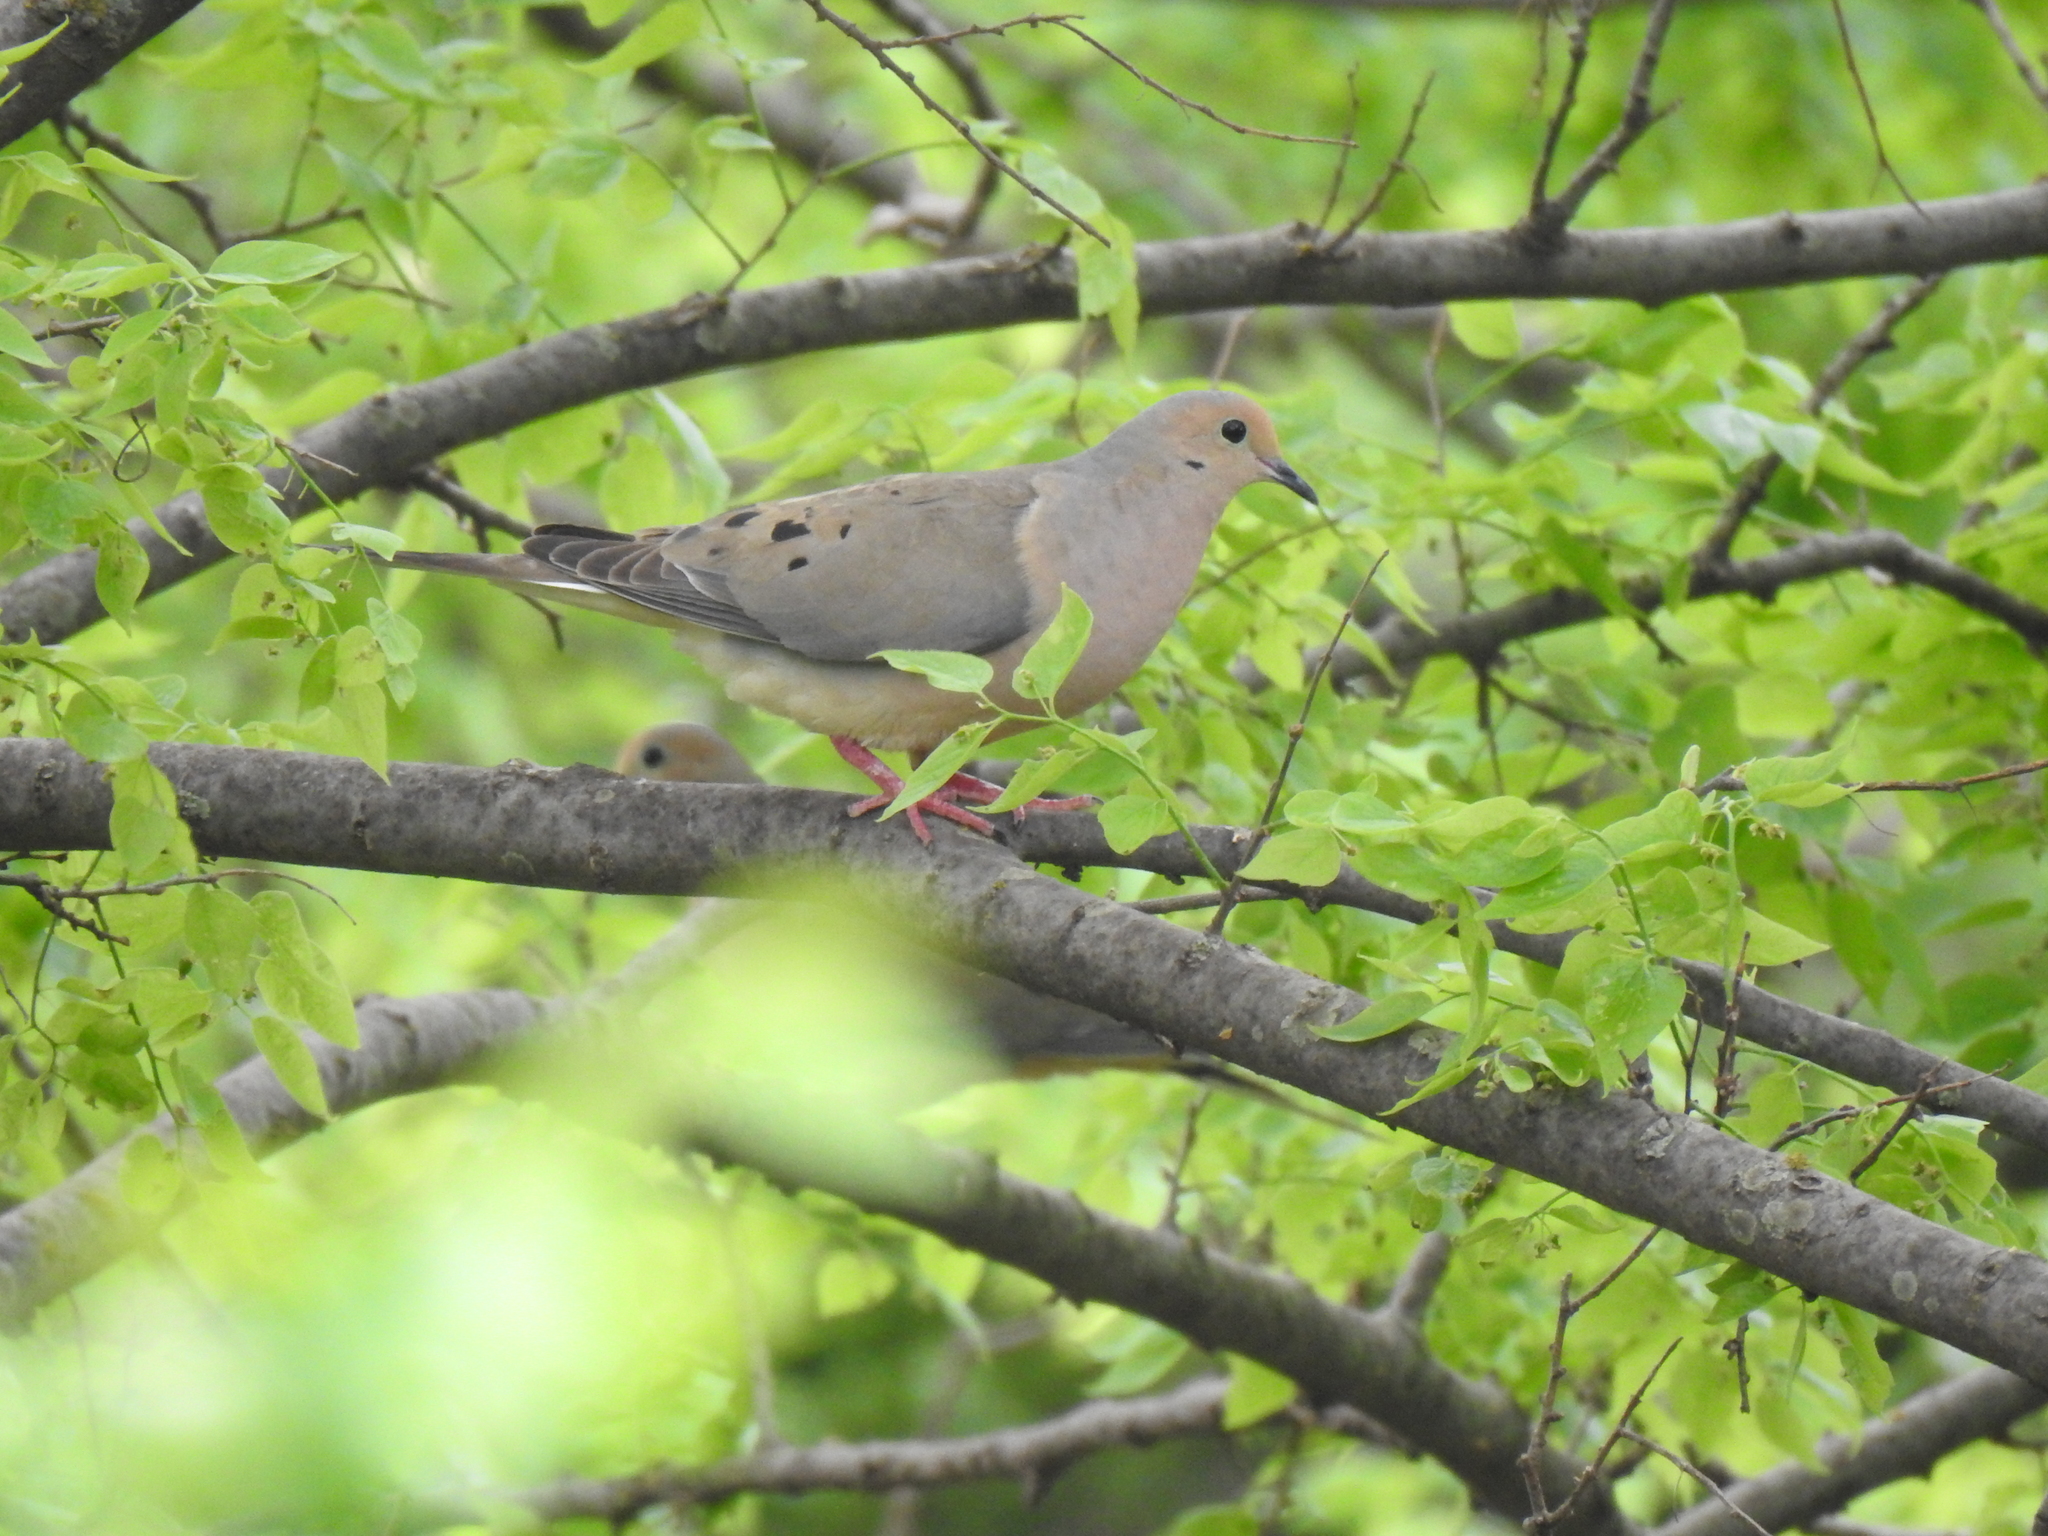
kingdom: Animalia
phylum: Chordata
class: Aves
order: Columbiformes
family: Columbidae
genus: Zenaida
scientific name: Zenaida macroura
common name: Mourning dove
